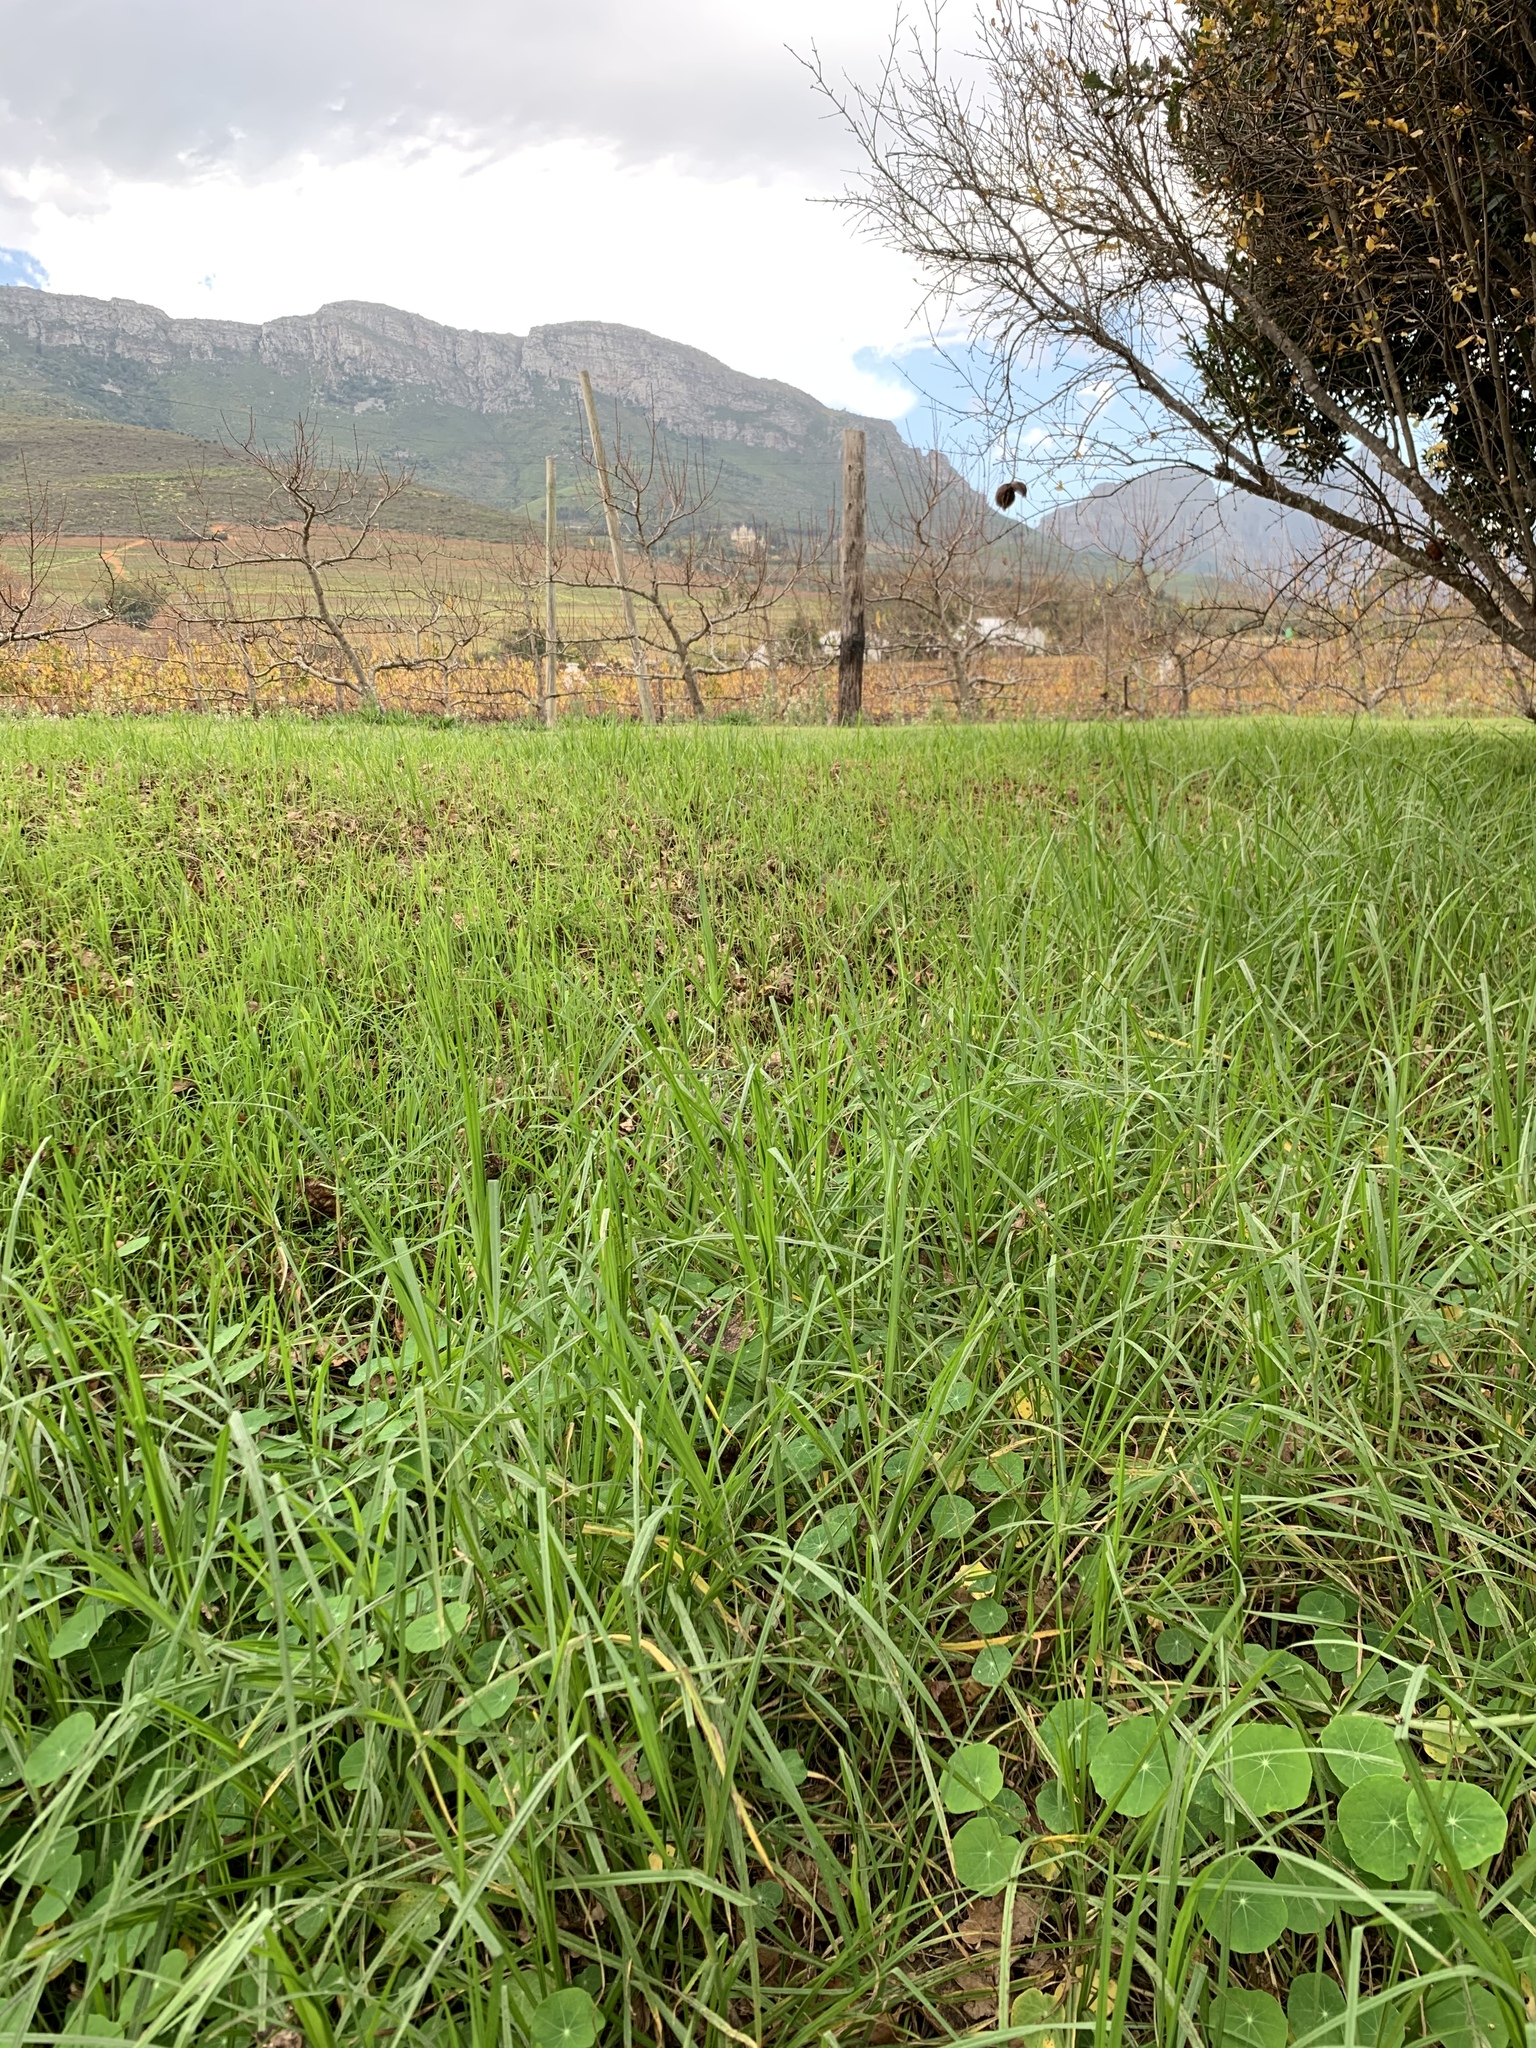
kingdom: Plantae
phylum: Tracheophyta
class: Liliopsida
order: Poales
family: Poaceae
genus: Cenchrus
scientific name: Cenchrus clandestinus
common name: Kikuyugrass
